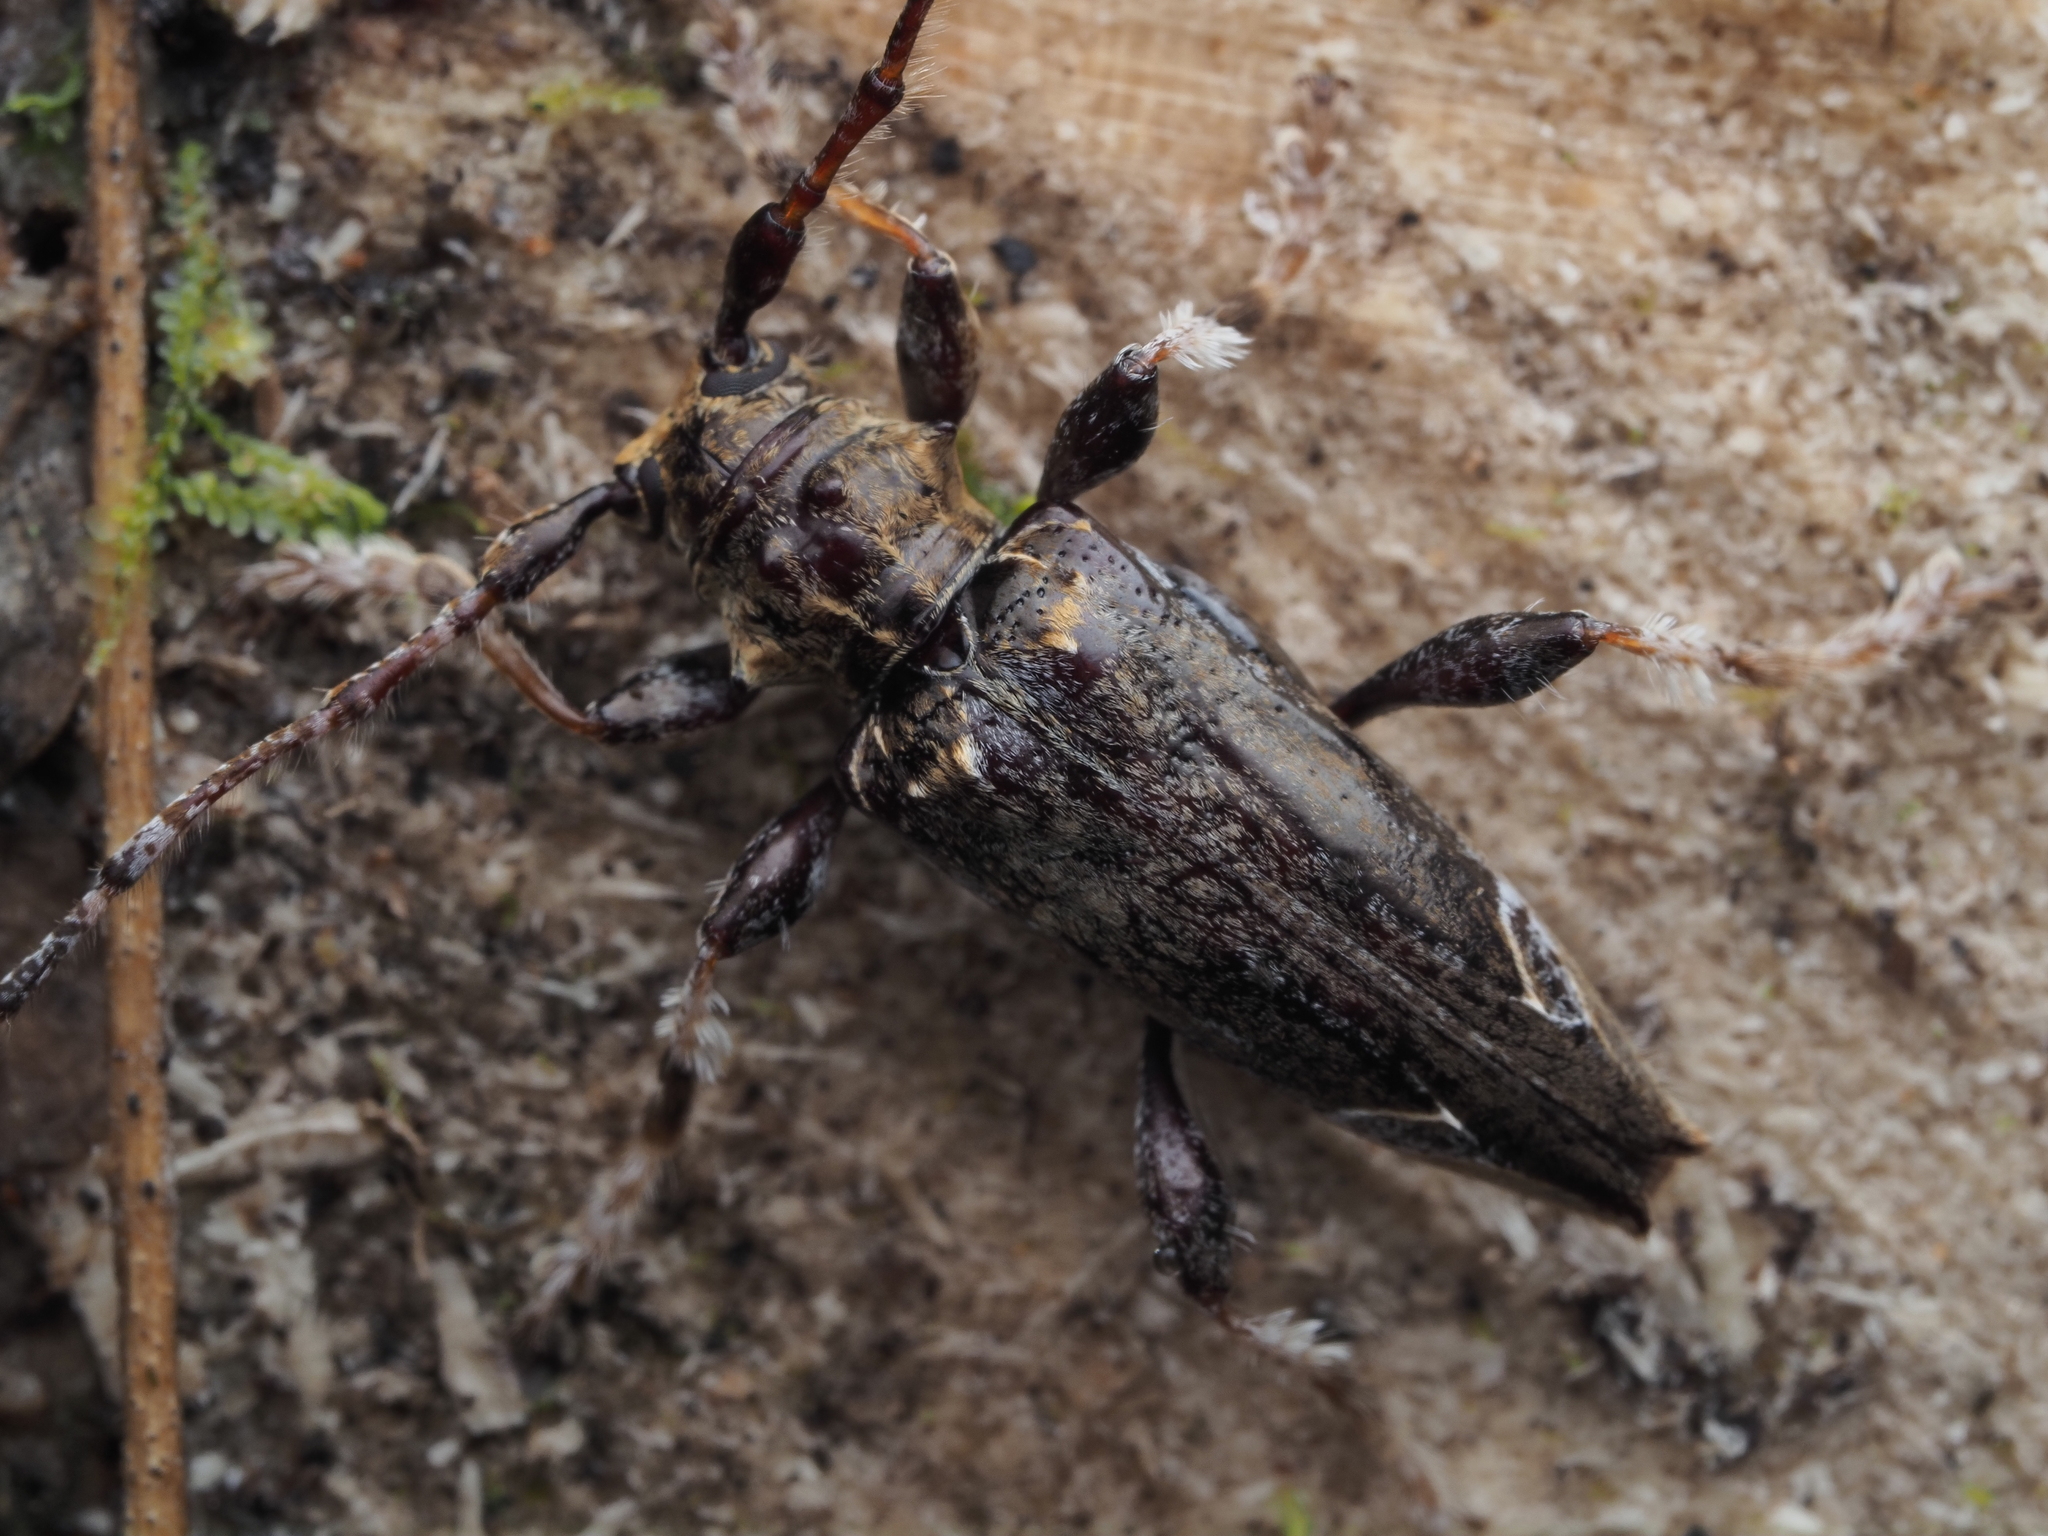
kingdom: Animalia
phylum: Arthropoda
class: Insecta
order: Coleoptera
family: Cerambycidae
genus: Tetrorea
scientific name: Tetrorea cilipes
